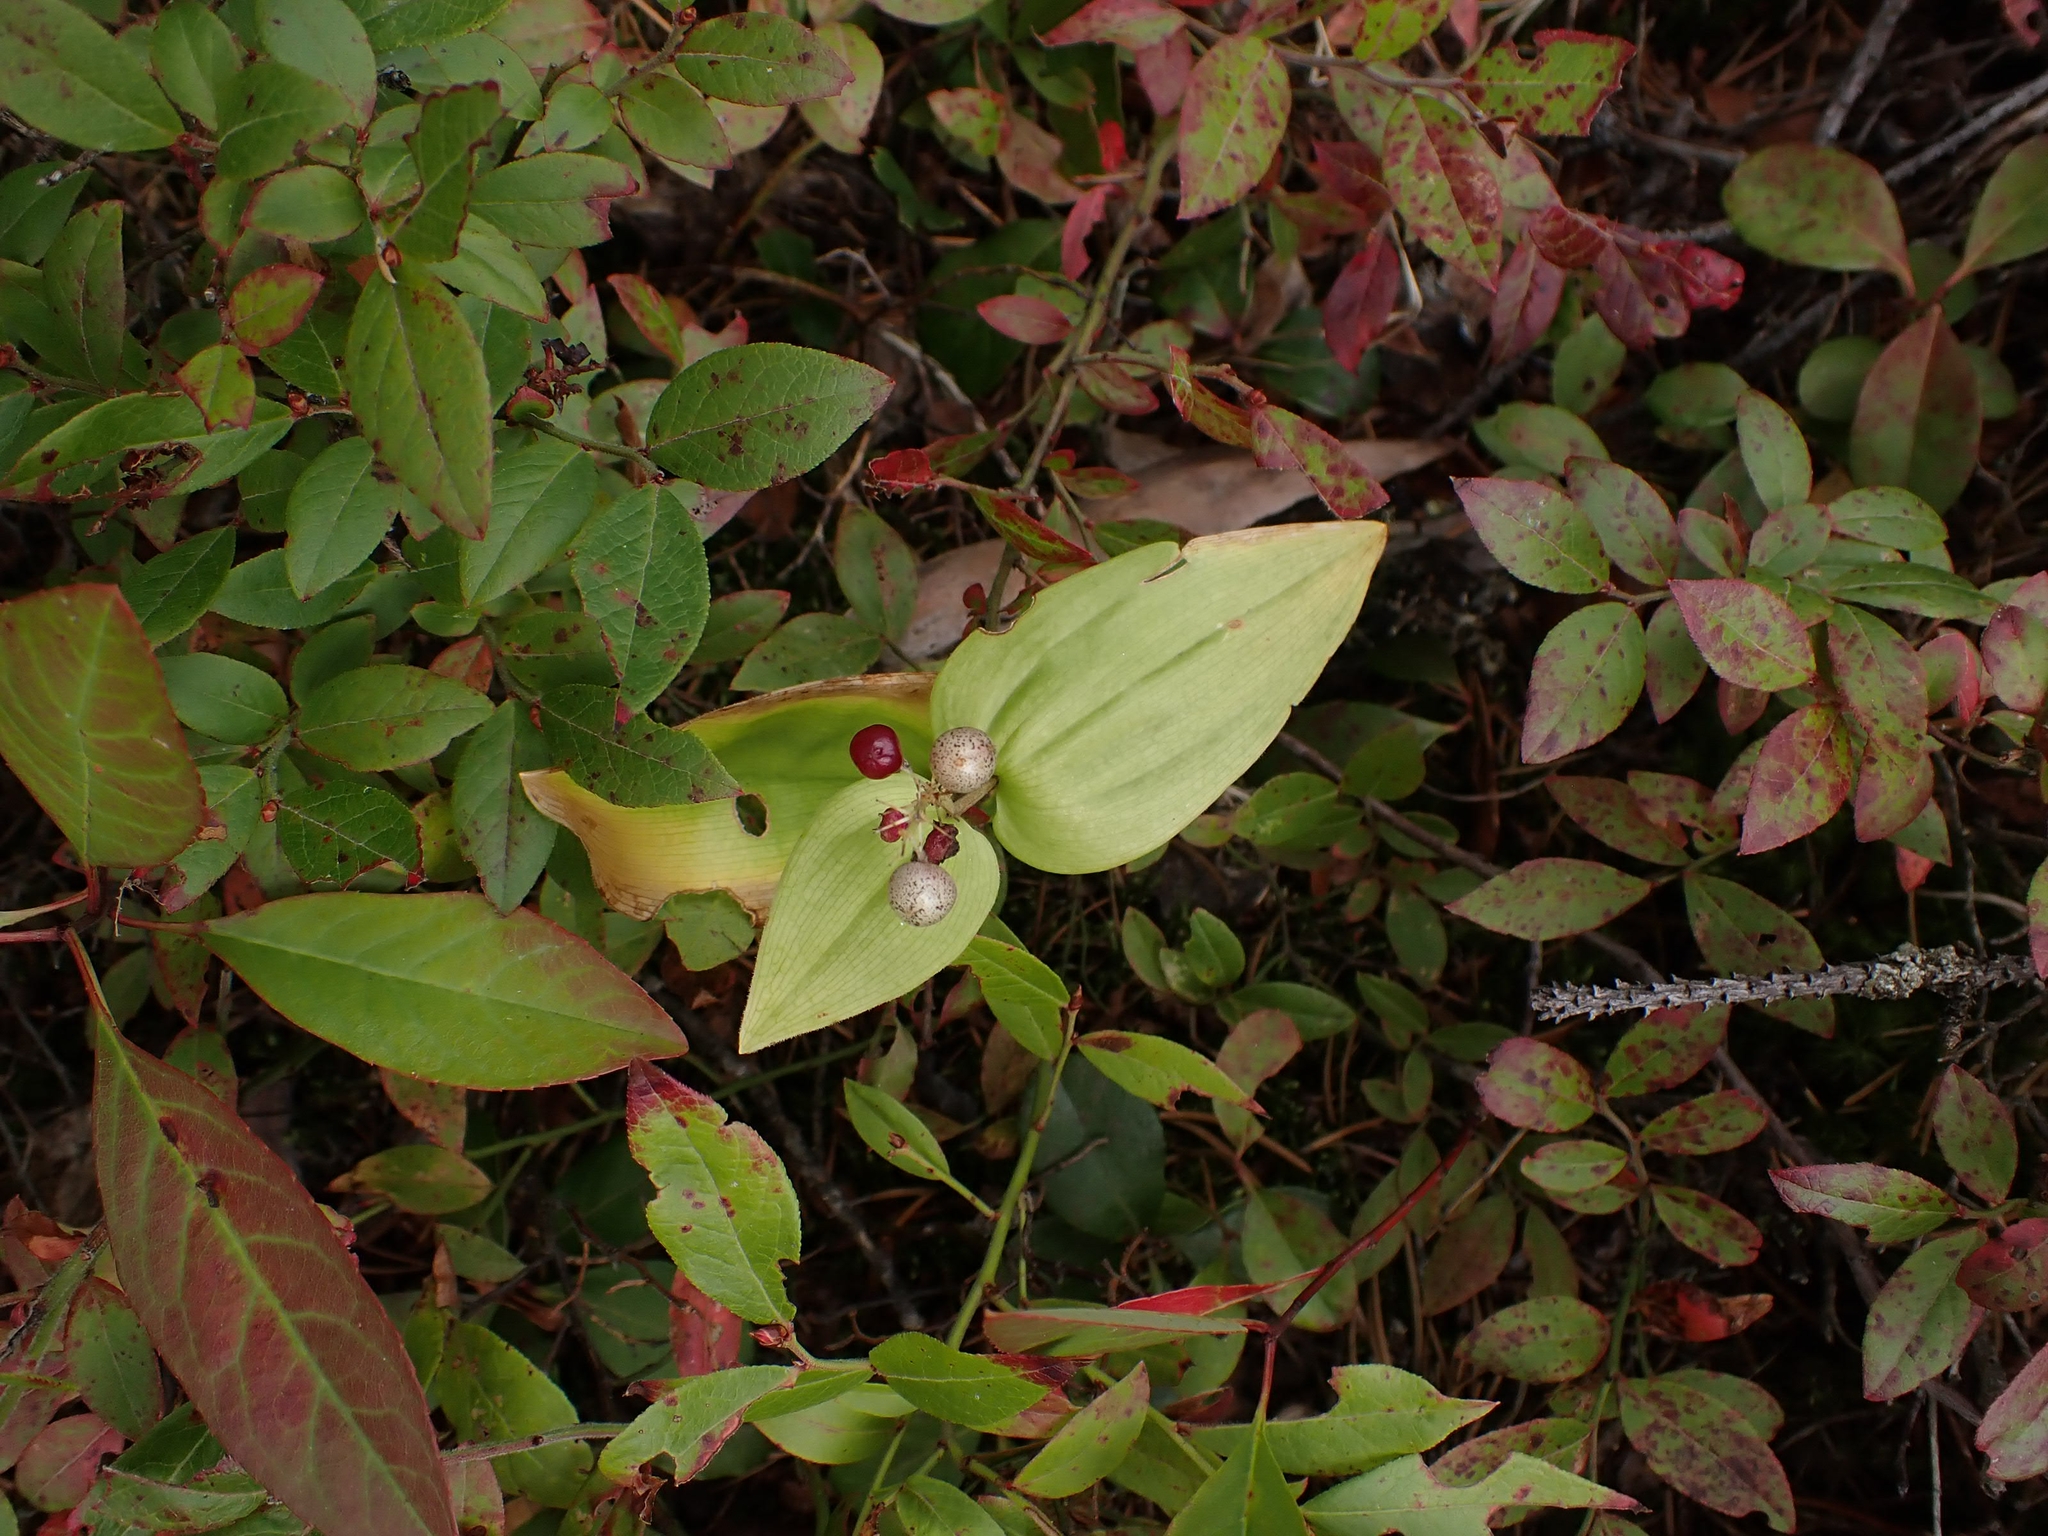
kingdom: Plantae
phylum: Tracheophyta
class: Liliopsida
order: Asparagales
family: Asparagaceae
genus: Maianthemum
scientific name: Maianthemum canadense
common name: False lily-of-the-valley
